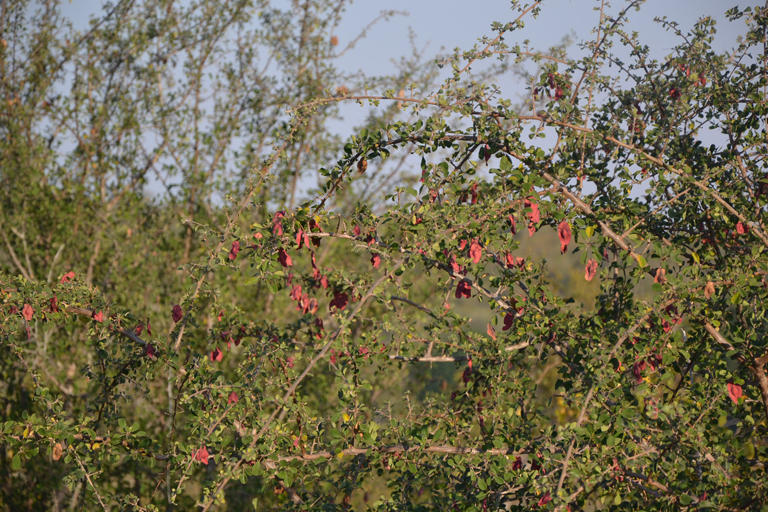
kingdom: Plantae
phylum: Tracheophyta
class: Magnoliopsida
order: Myrtales
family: Combretaceae
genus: Terminalia
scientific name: Terminalia prunioides
